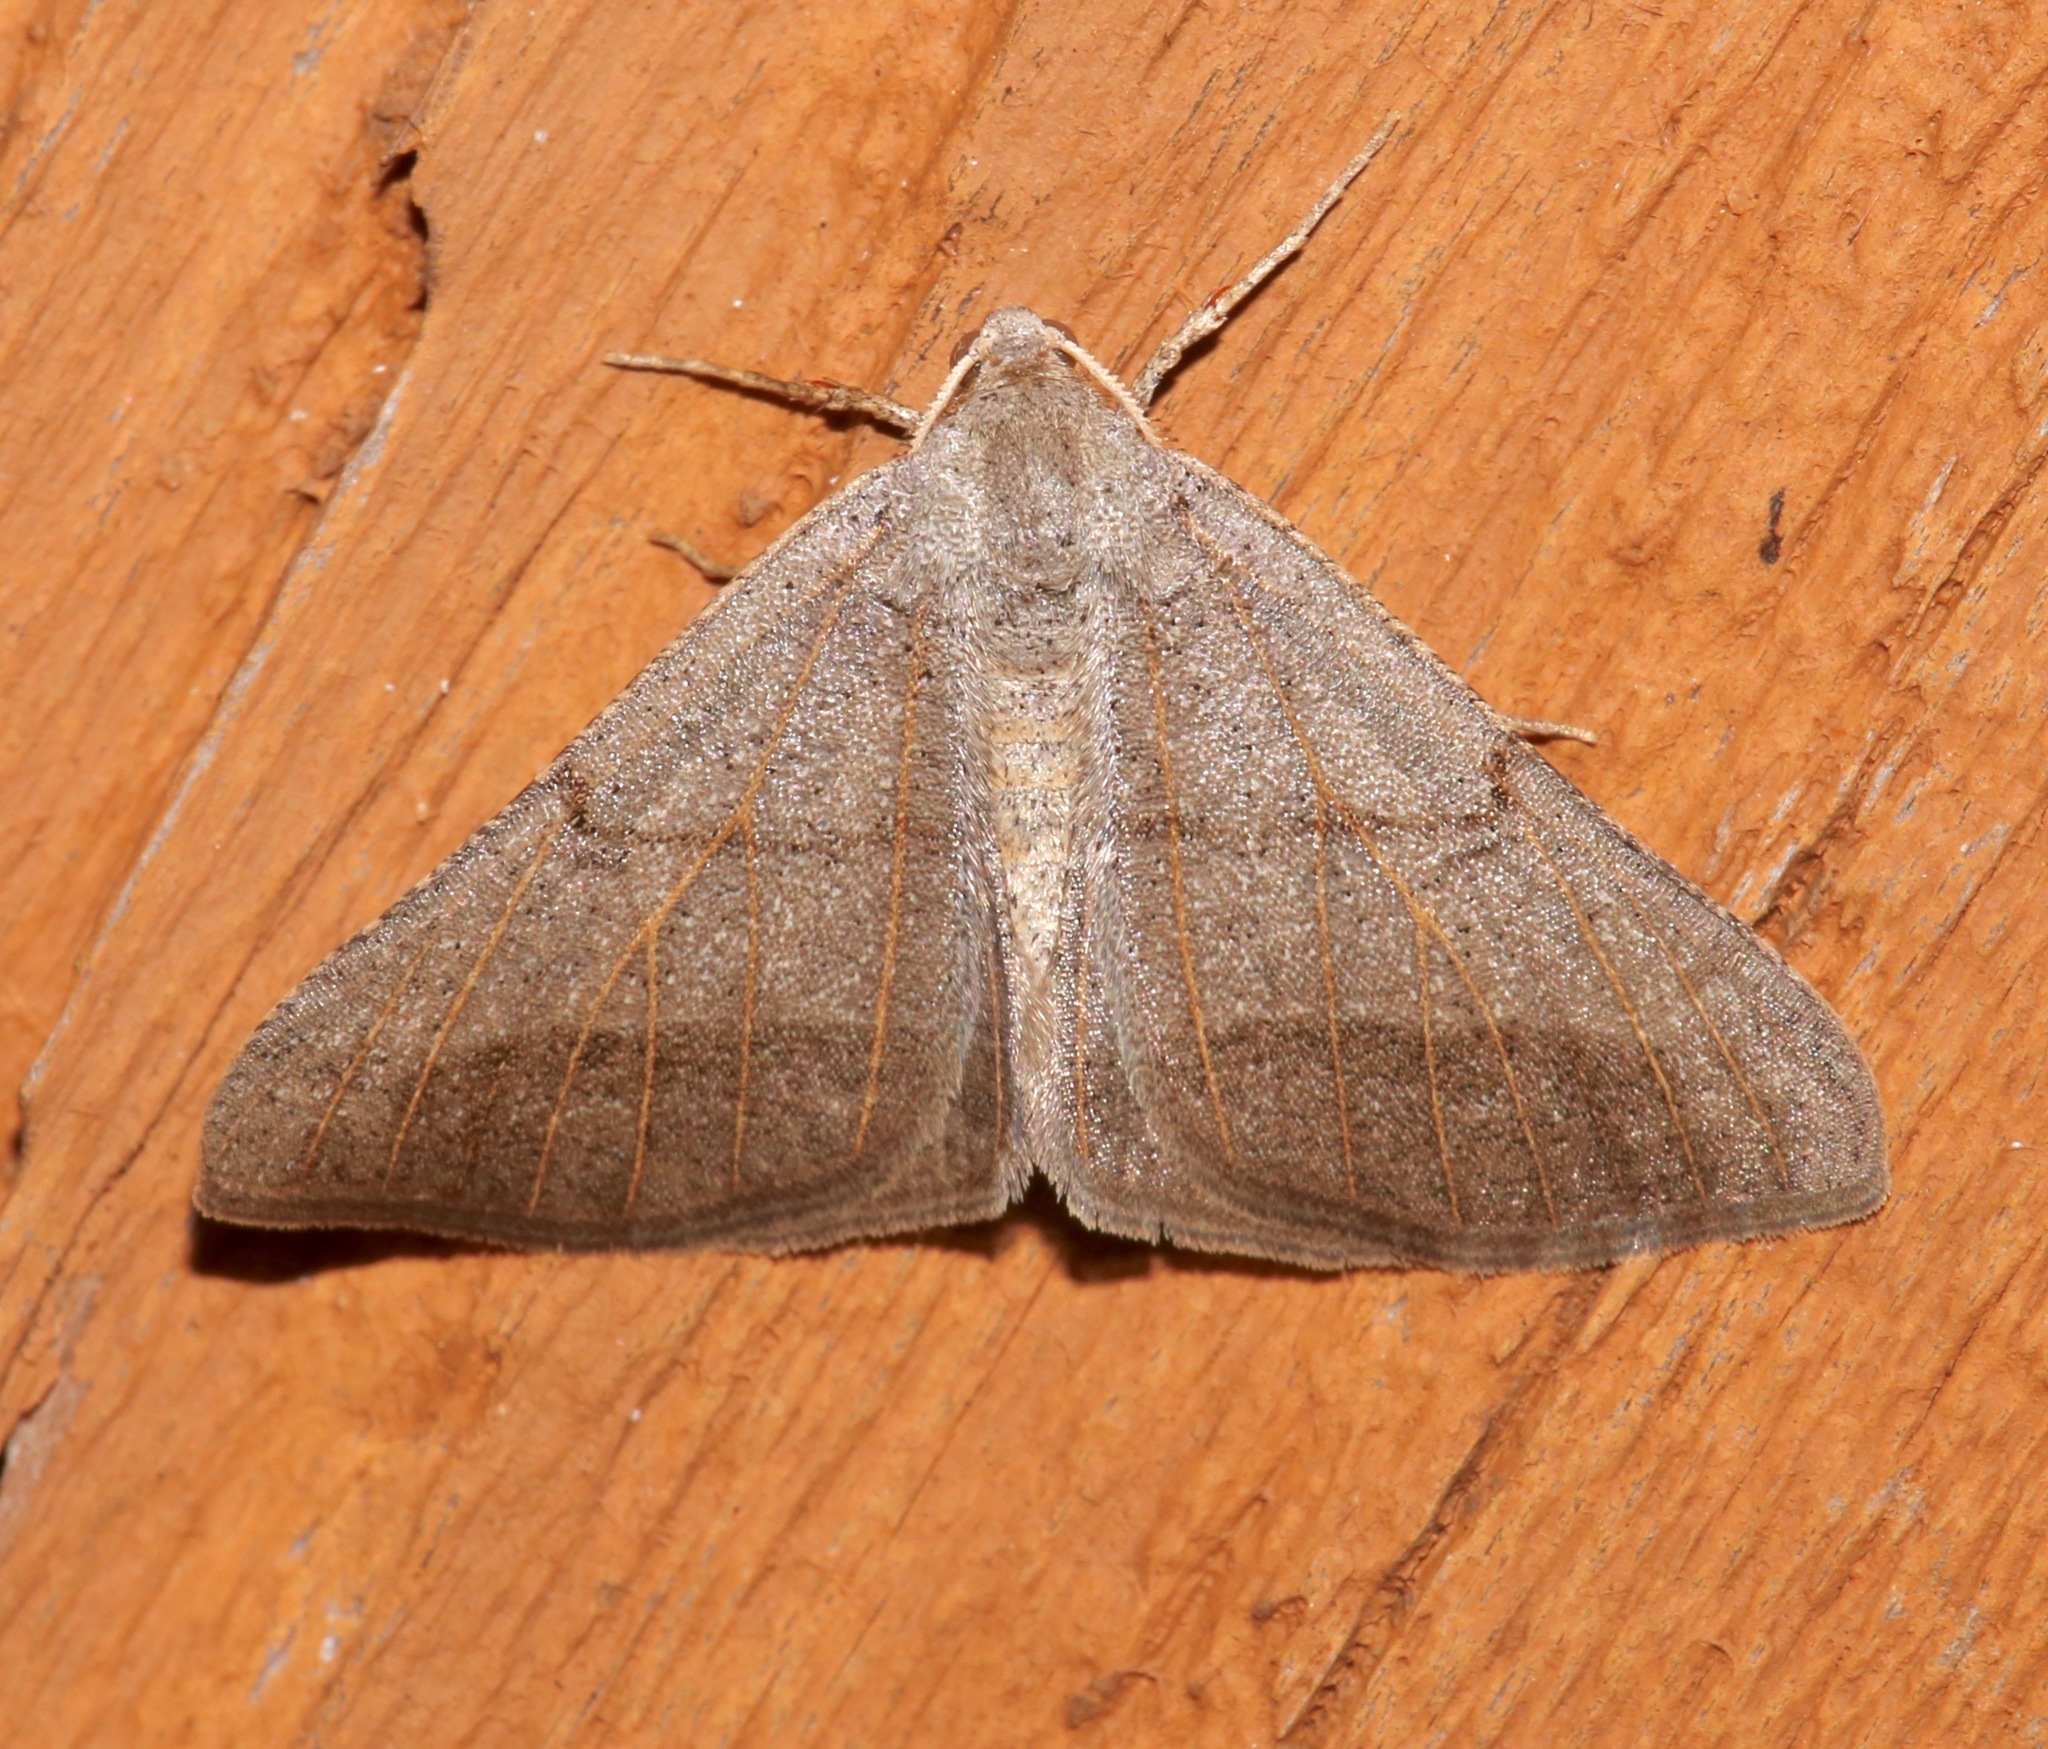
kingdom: Animalia
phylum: Arthropoda
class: Insecta
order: Lepidoptera
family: Geometridae
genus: Isturgia
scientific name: Isturgia dislocaria
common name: Pale-viened enconista
